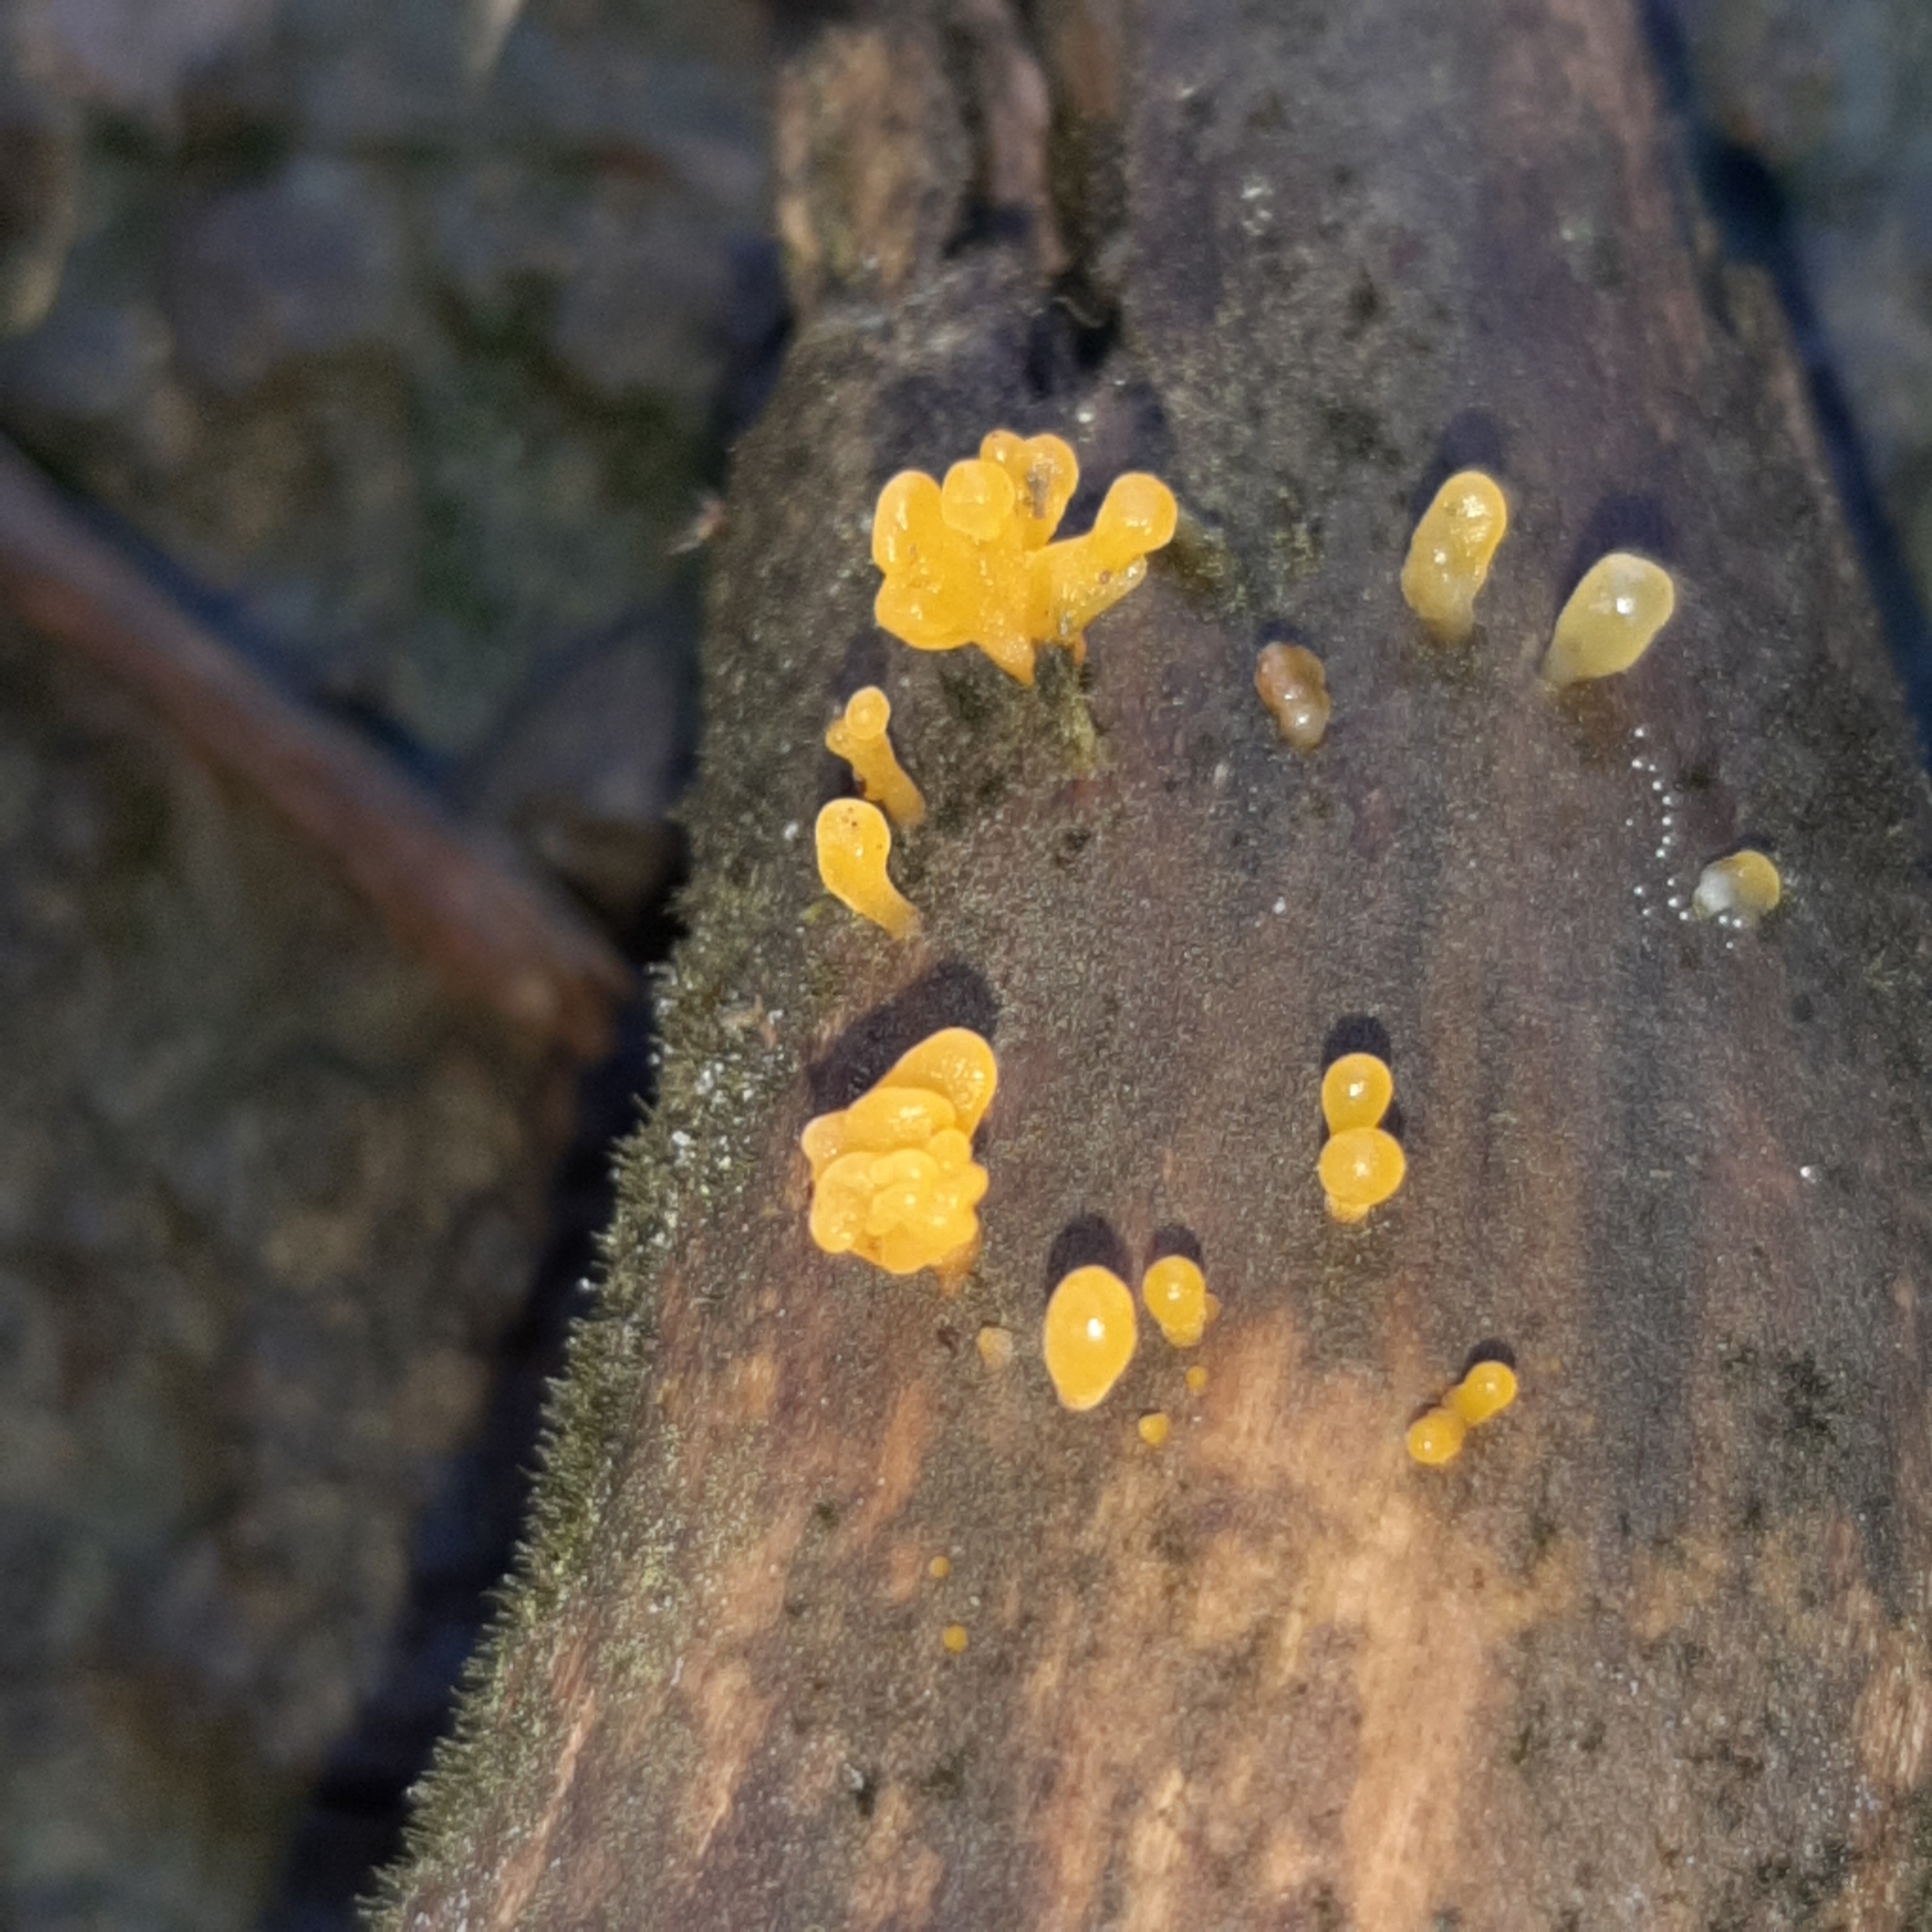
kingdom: Fungi
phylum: Basidiomycota
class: Dacrymycetes
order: Dacrymycetales
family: Dacrymycetaceae
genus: Dacrymyces
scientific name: Dacrymyces spathularius
